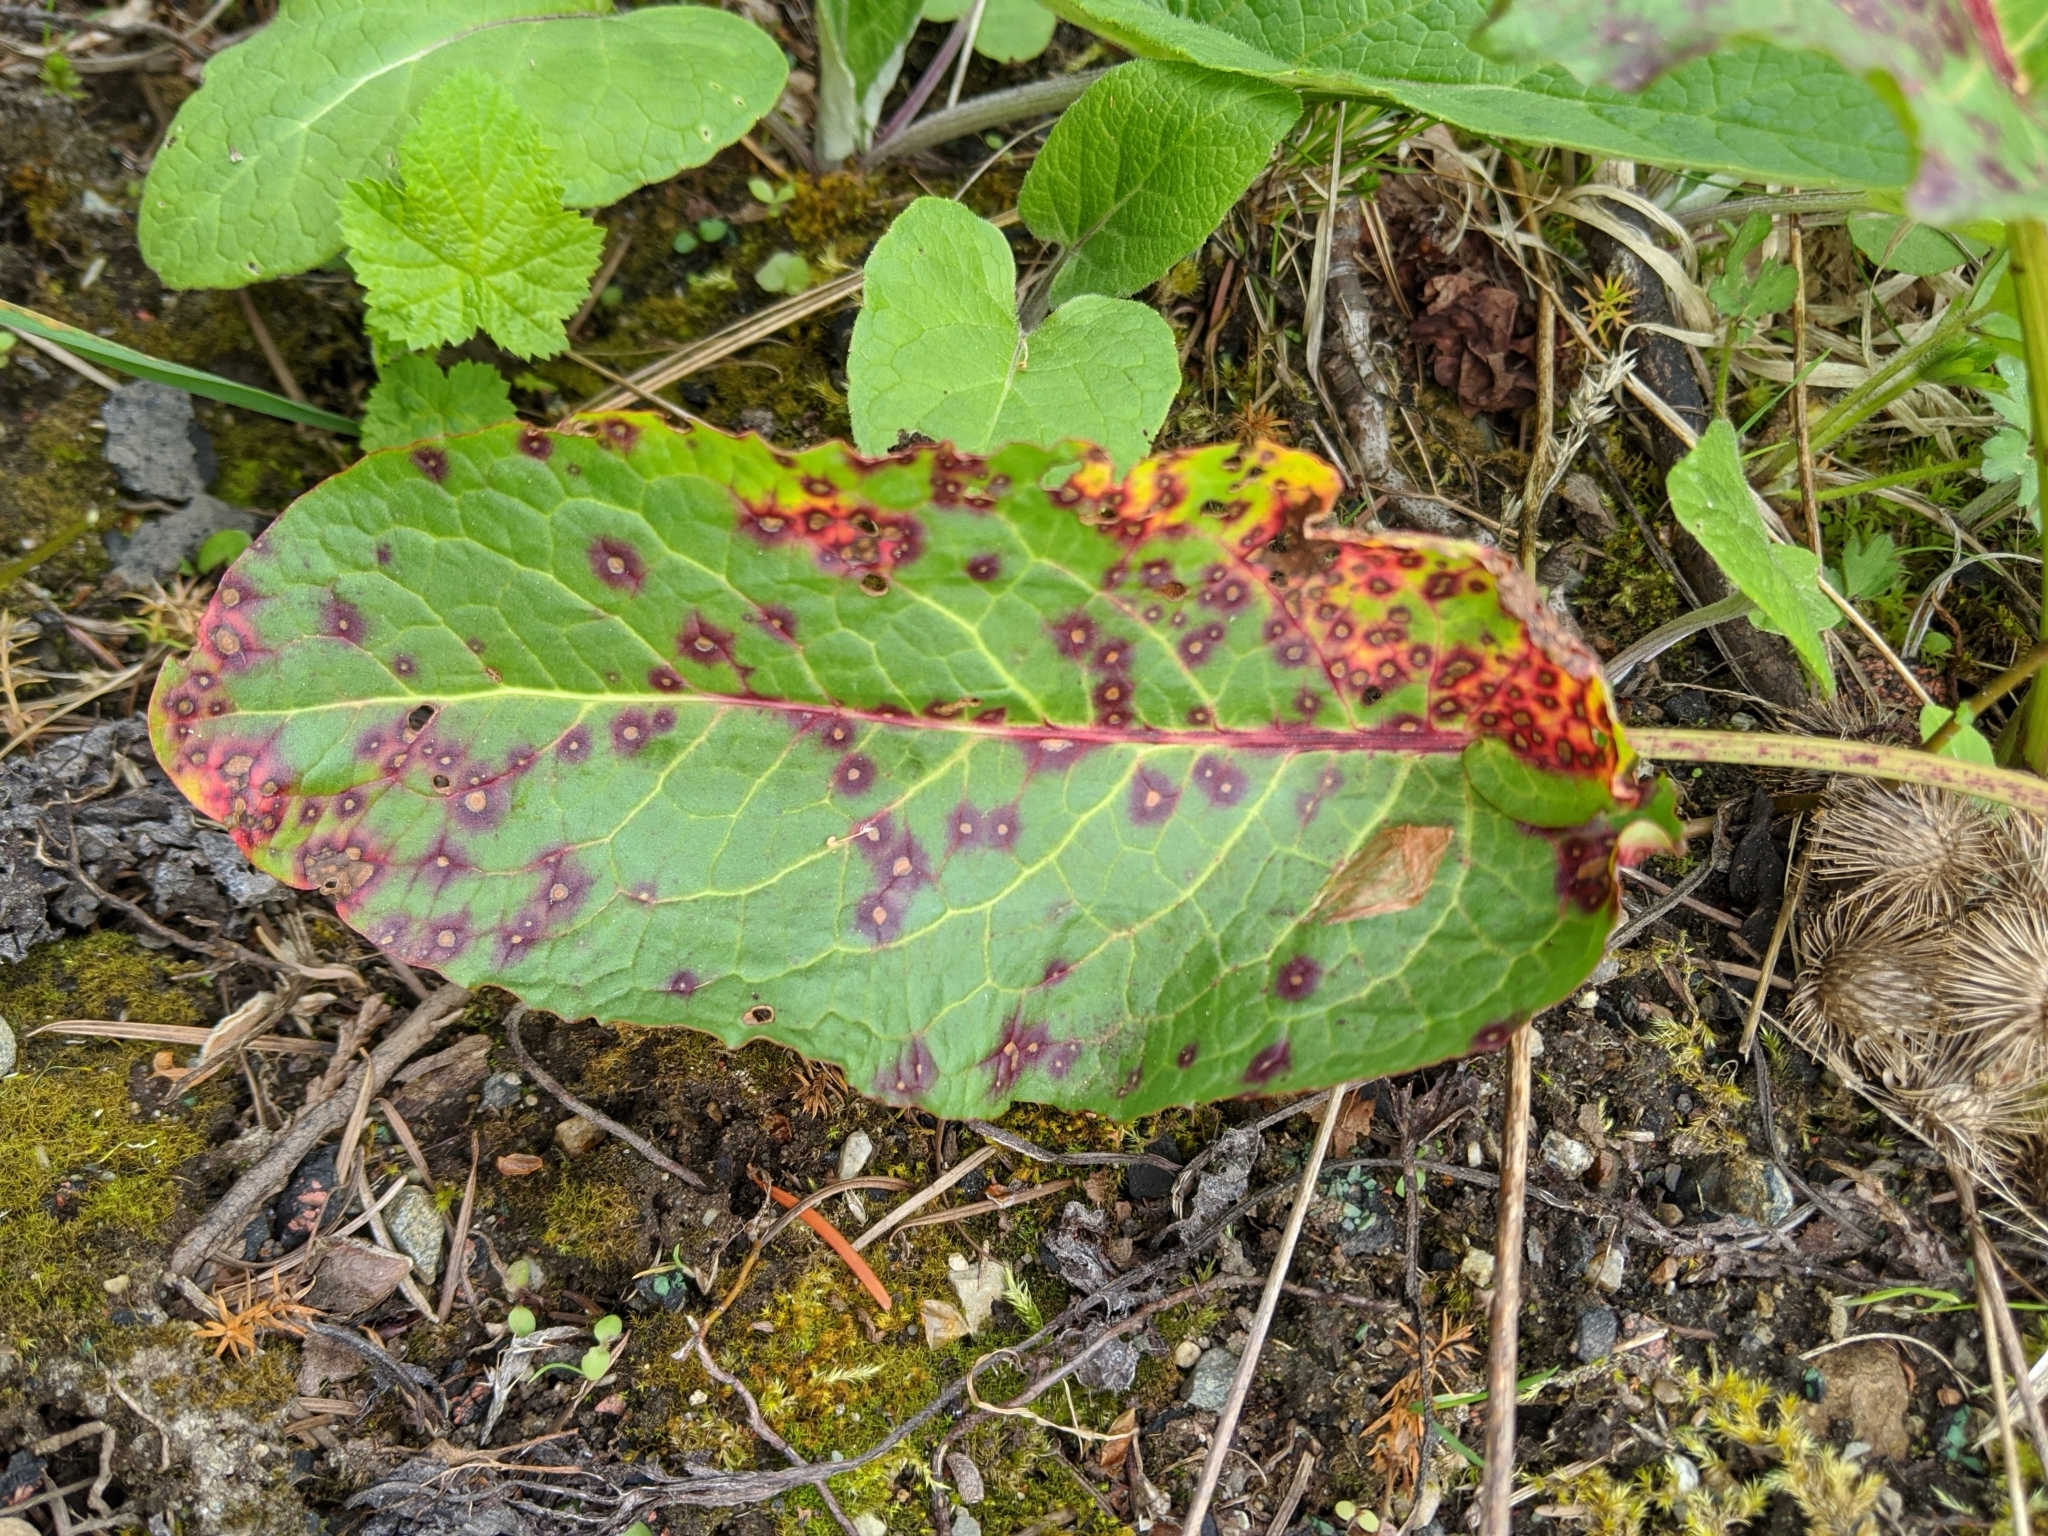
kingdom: Fungi
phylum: Ascomycota
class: Dothideomycetes
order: Mycosphaerellales
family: Mycosphaerellaceae
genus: Ramularia
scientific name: Ramularia rubella
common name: Red dock spot
